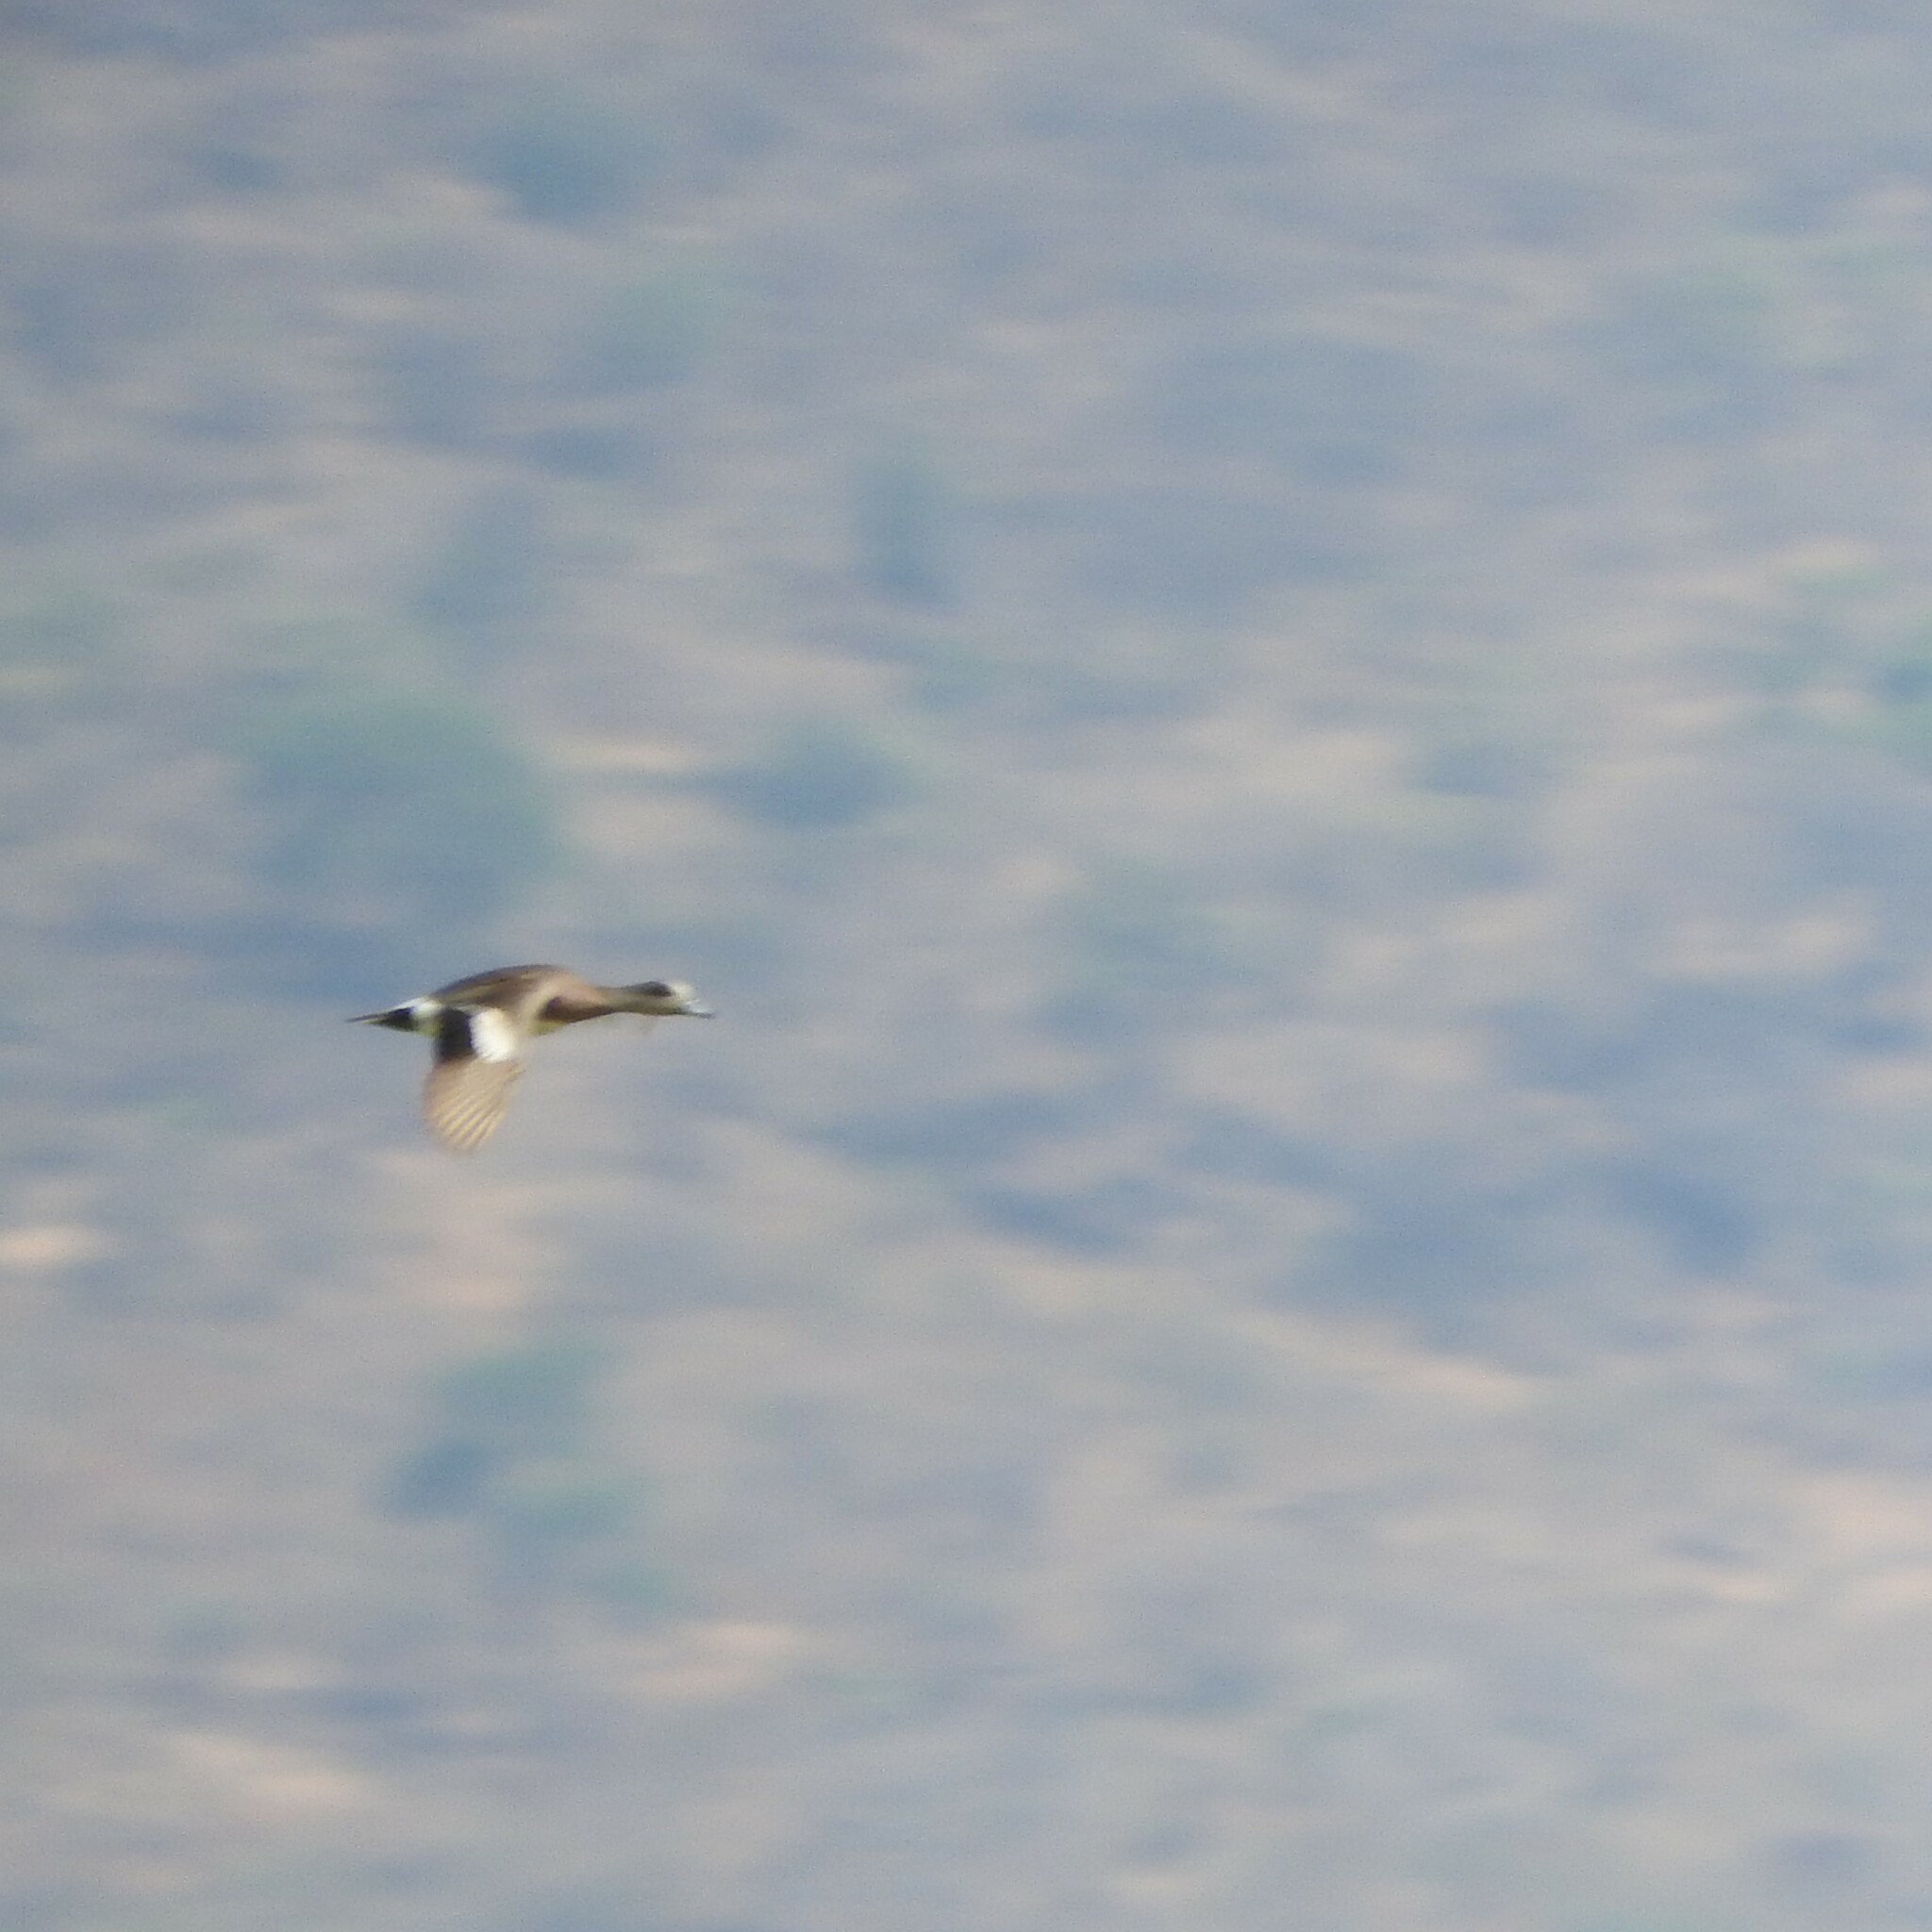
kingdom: Animalia
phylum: Chordata
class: Aves
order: Anseriformes
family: Anatidae
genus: Mareca
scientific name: Mareca strepera
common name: Gadwall
